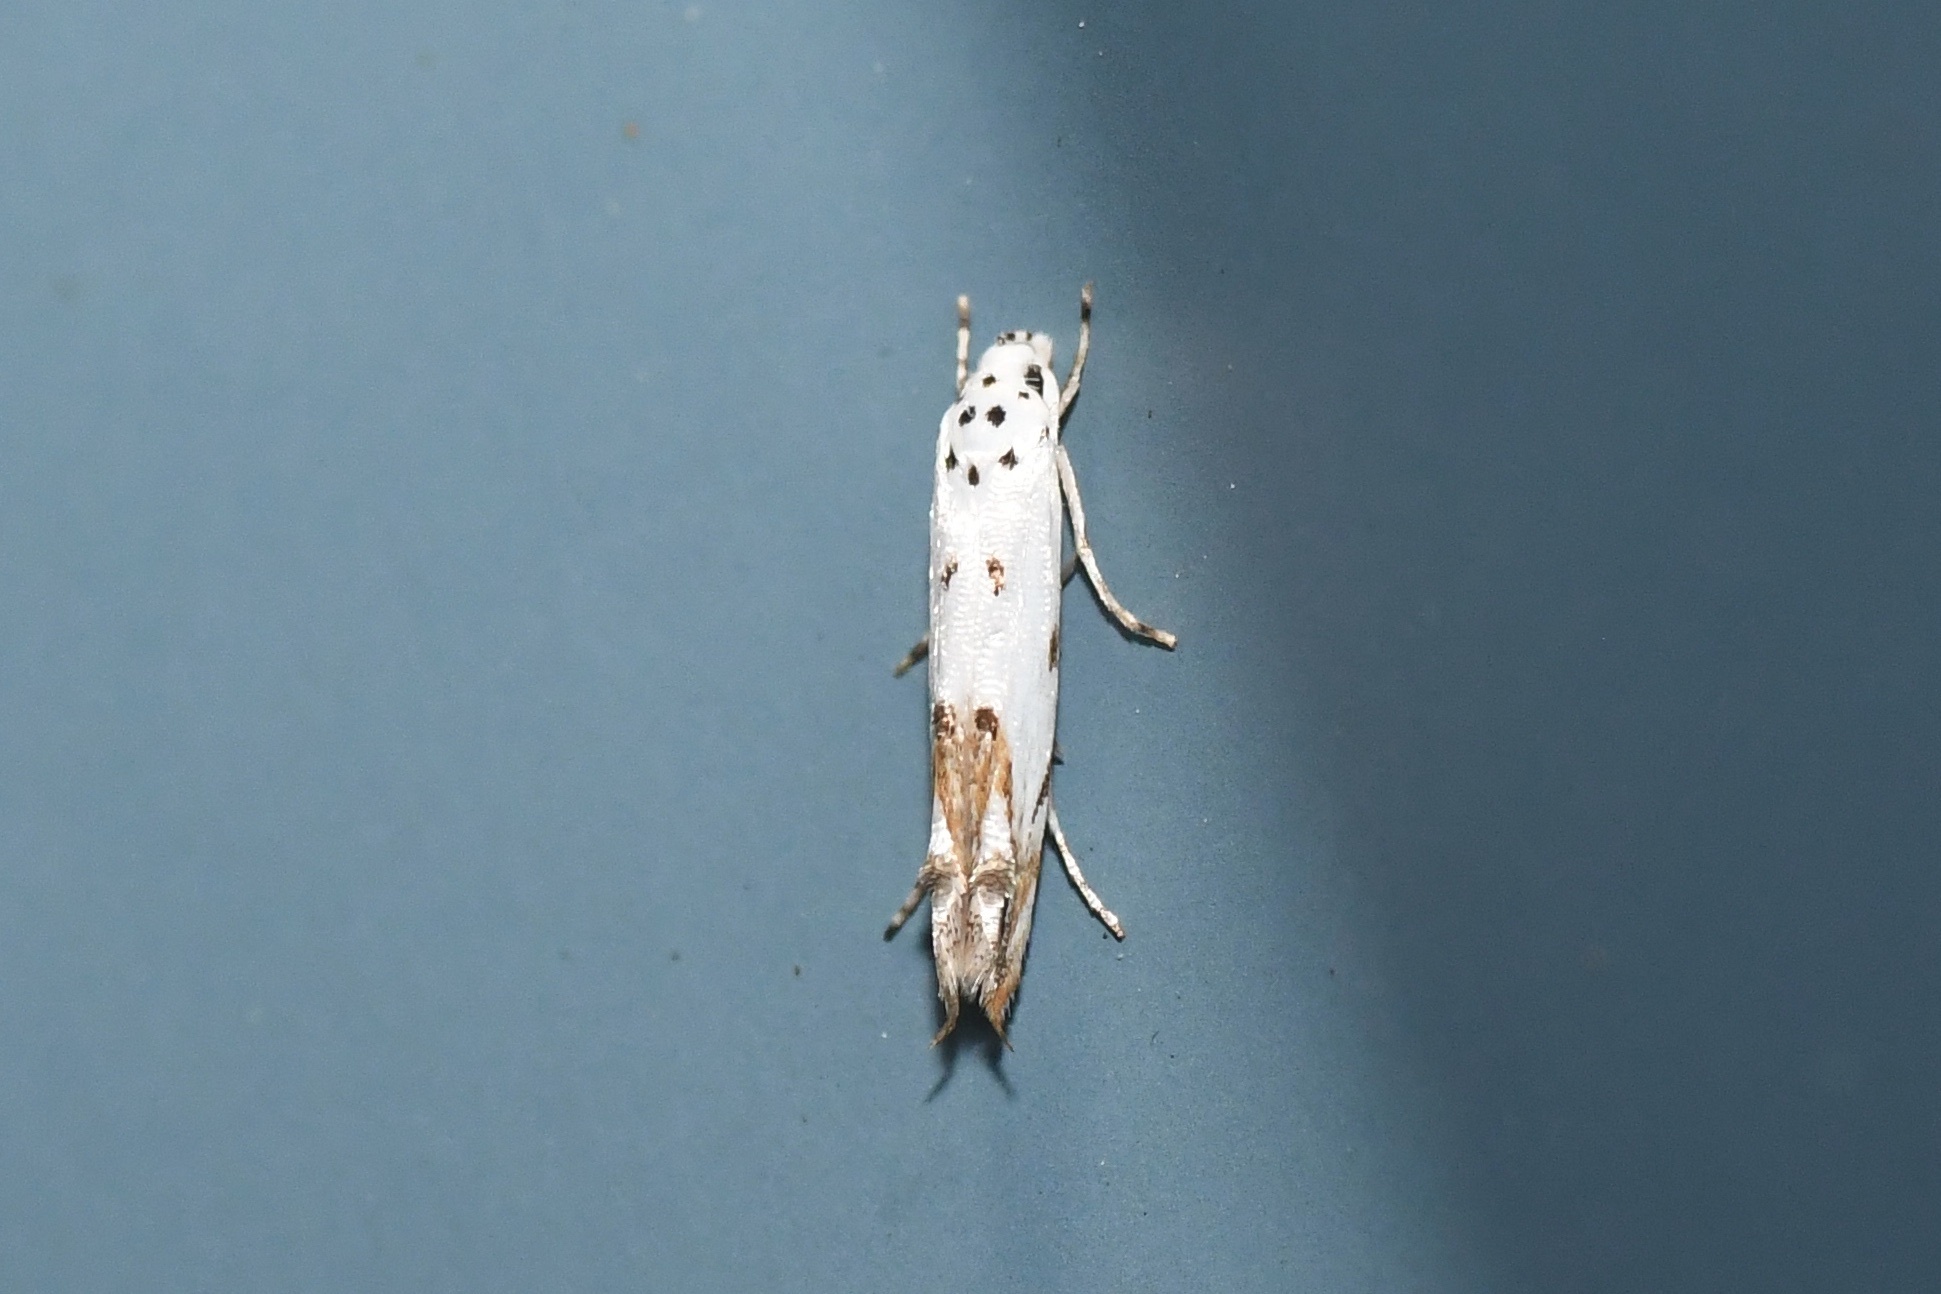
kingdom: Animalia
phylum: Arthropoda
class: Insecta
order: Lepidoptera
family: Momphidae
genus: Mompha
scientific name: Mompha eloisella
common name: Red-streaked mompha moth
